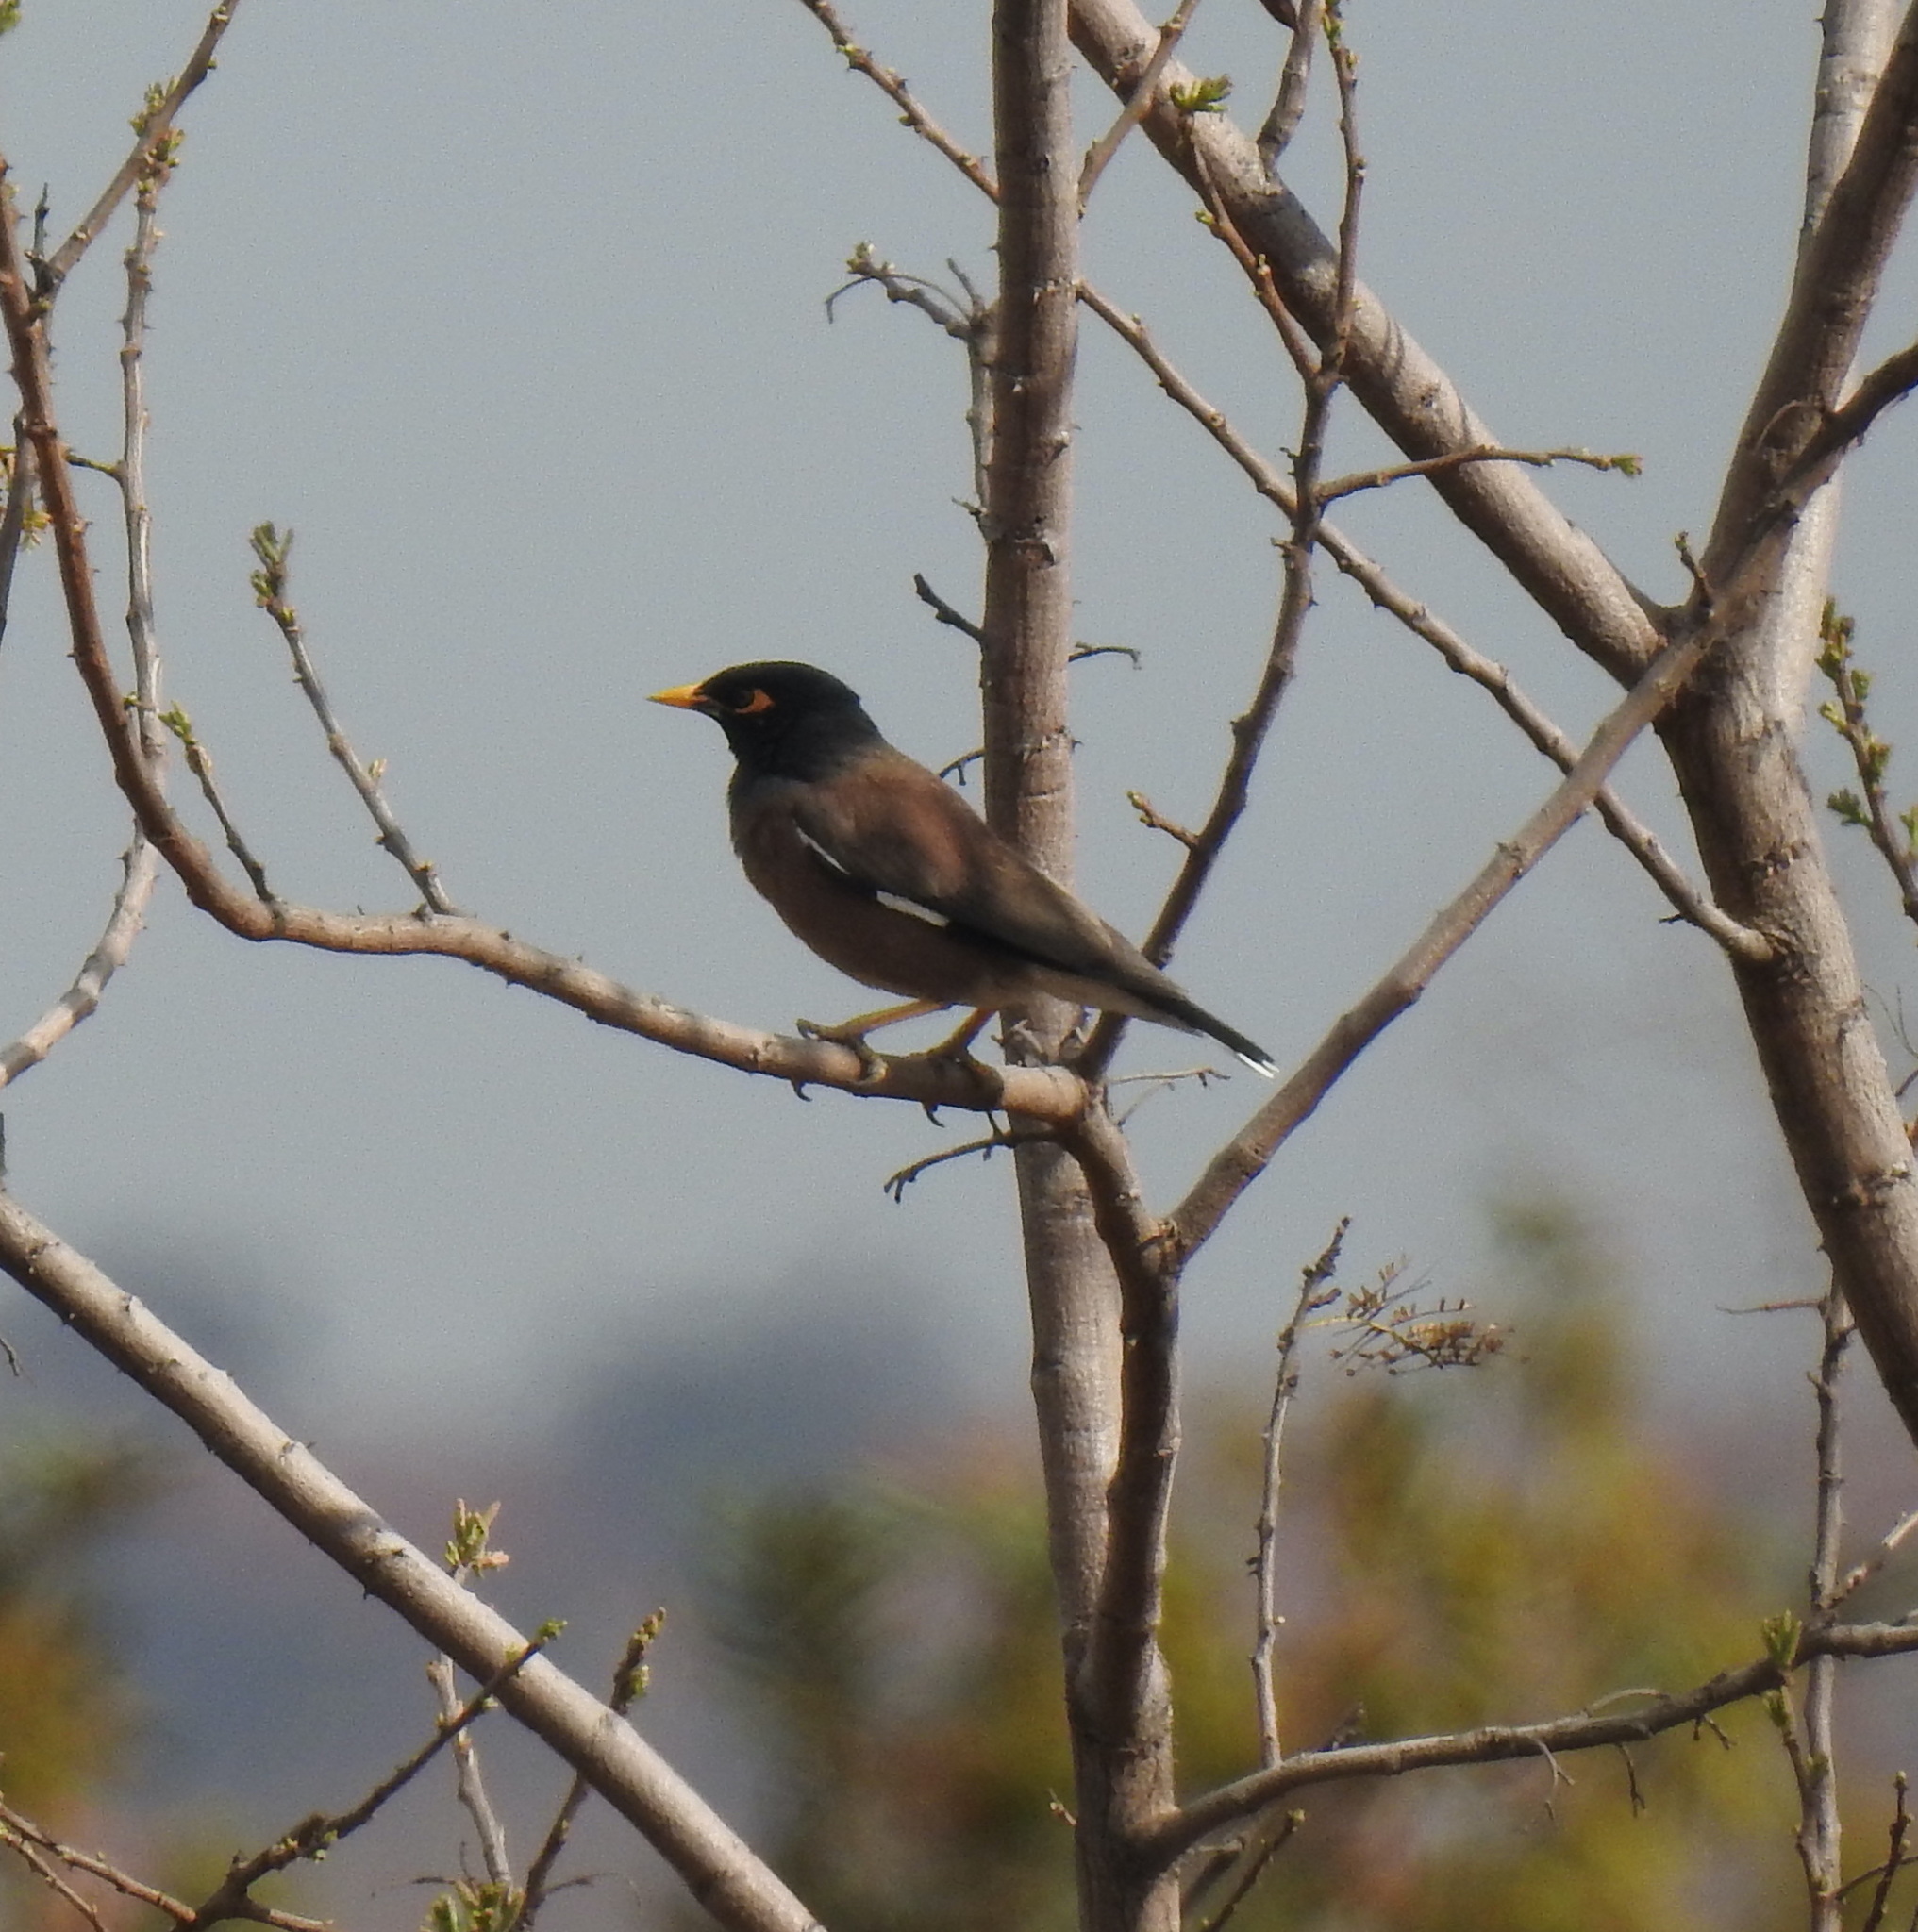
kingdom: Animalia
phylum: Chordata
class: Aves
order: Passeriformes
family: Sturnidae
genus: Acridotheres
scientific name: Acridotheres tristis
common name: Common myna
